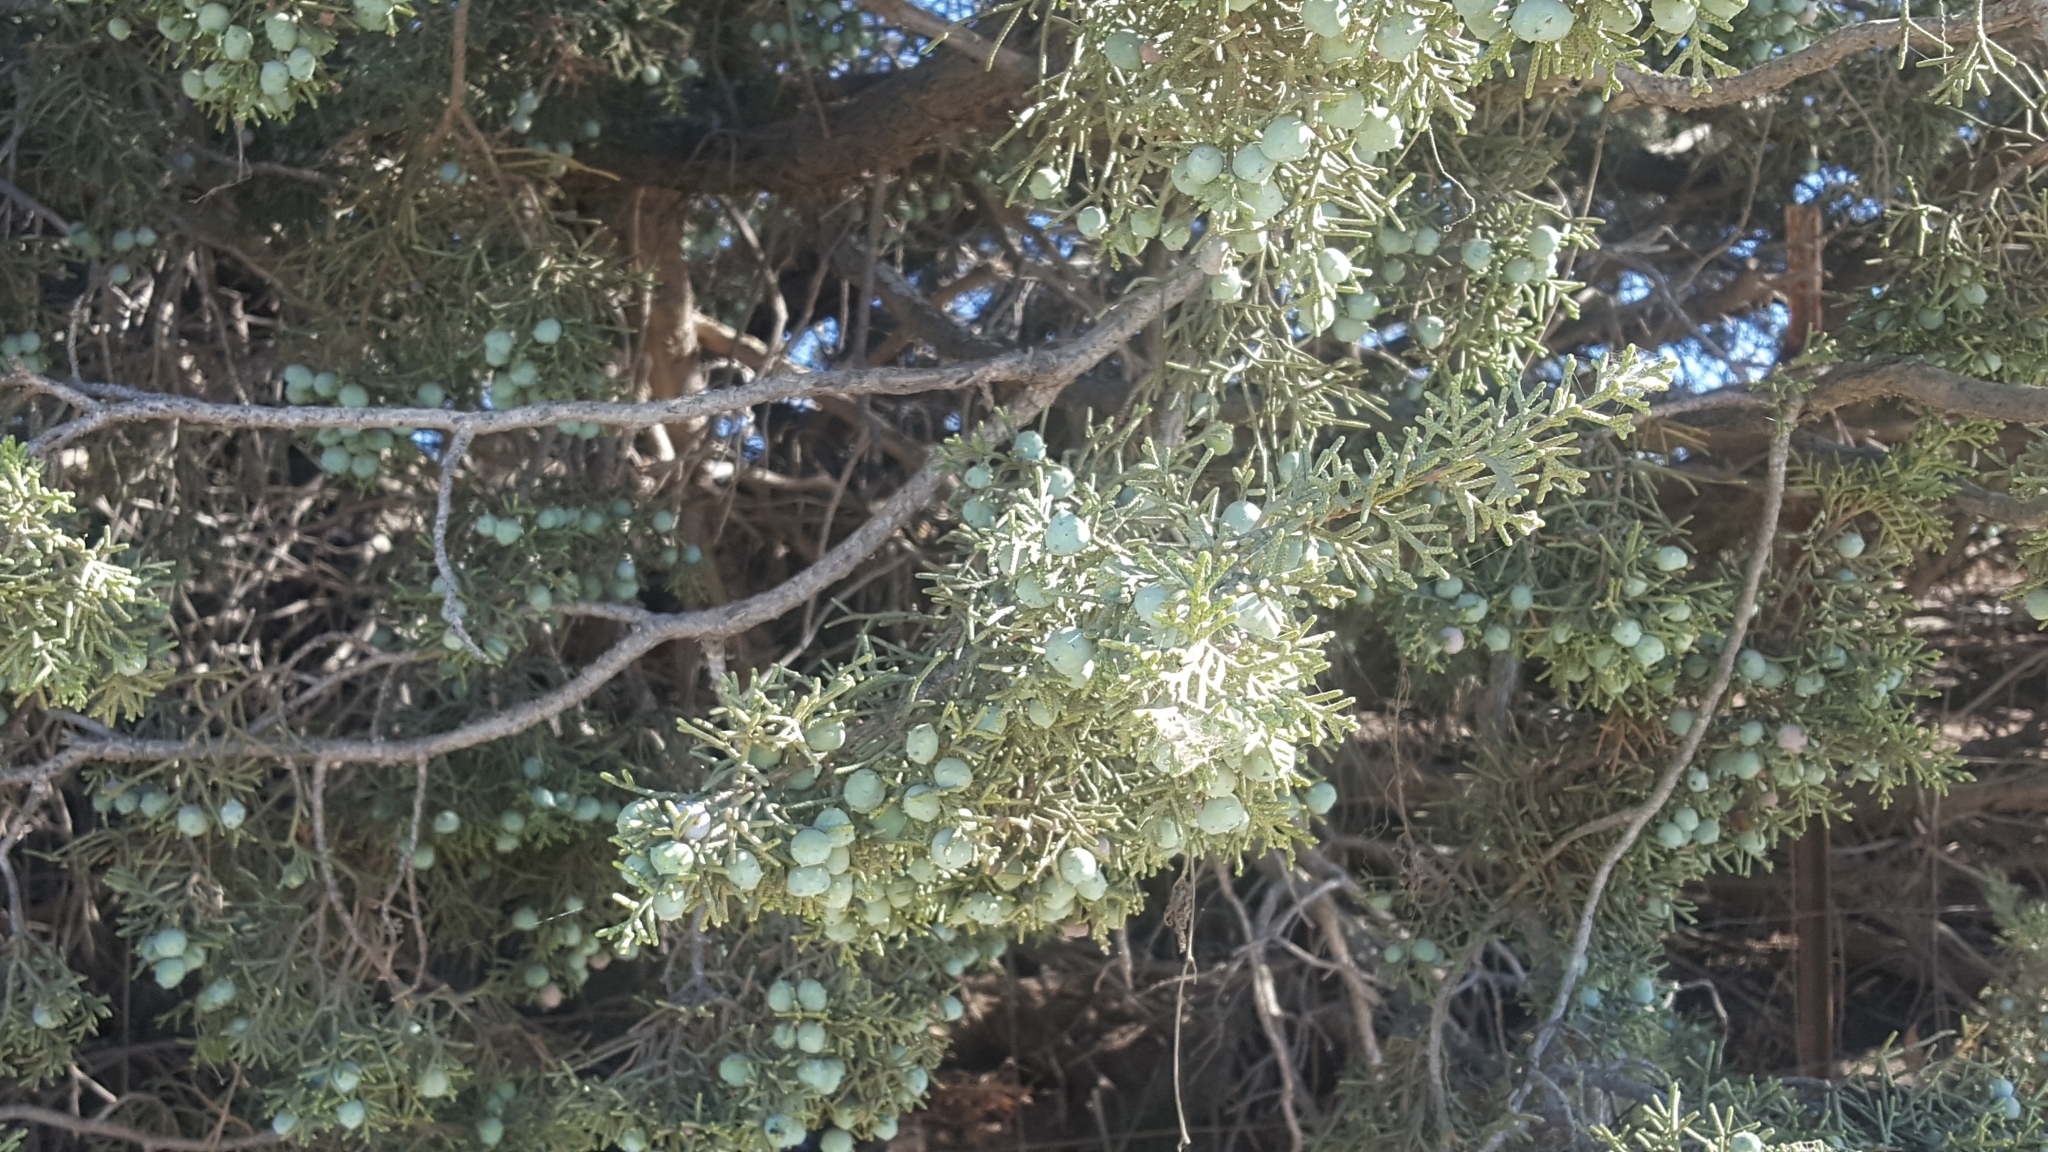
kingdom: Plantae
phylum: Tracheophyta
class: Pinopsida
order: Pinales
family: Cupressaceae
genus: Juniperus
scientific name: Juniperus californica
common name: California juniper
